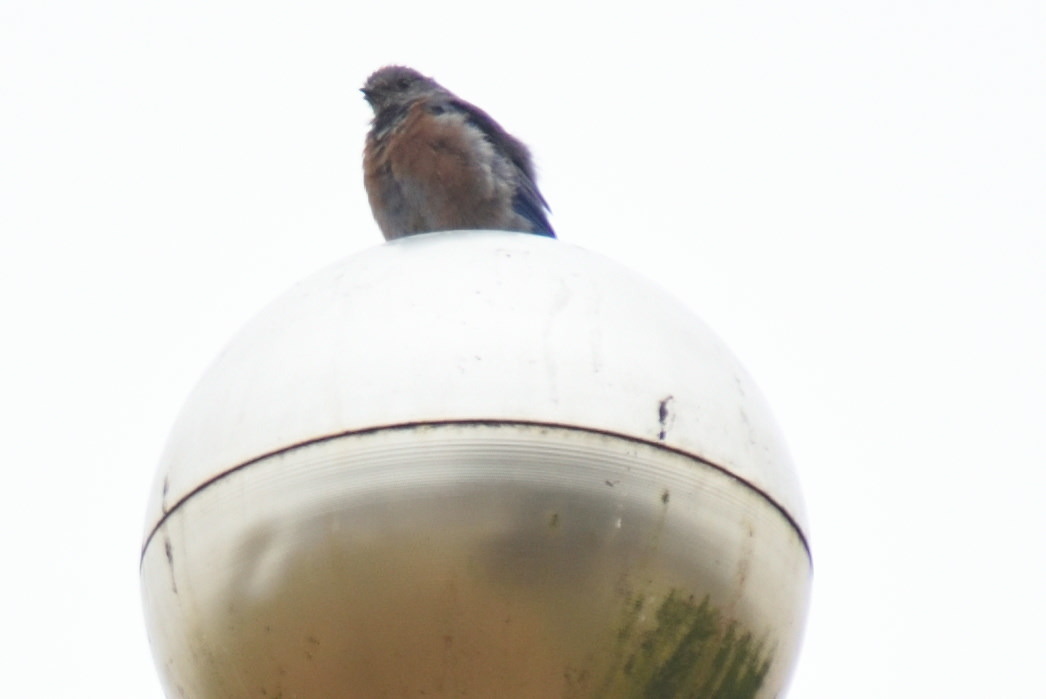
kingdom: Animalia
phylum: Chordata
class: Aves
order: Passeriformes
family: Turdidae
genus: Sialia
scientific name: Sialia mexicana
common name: Western bluebird
